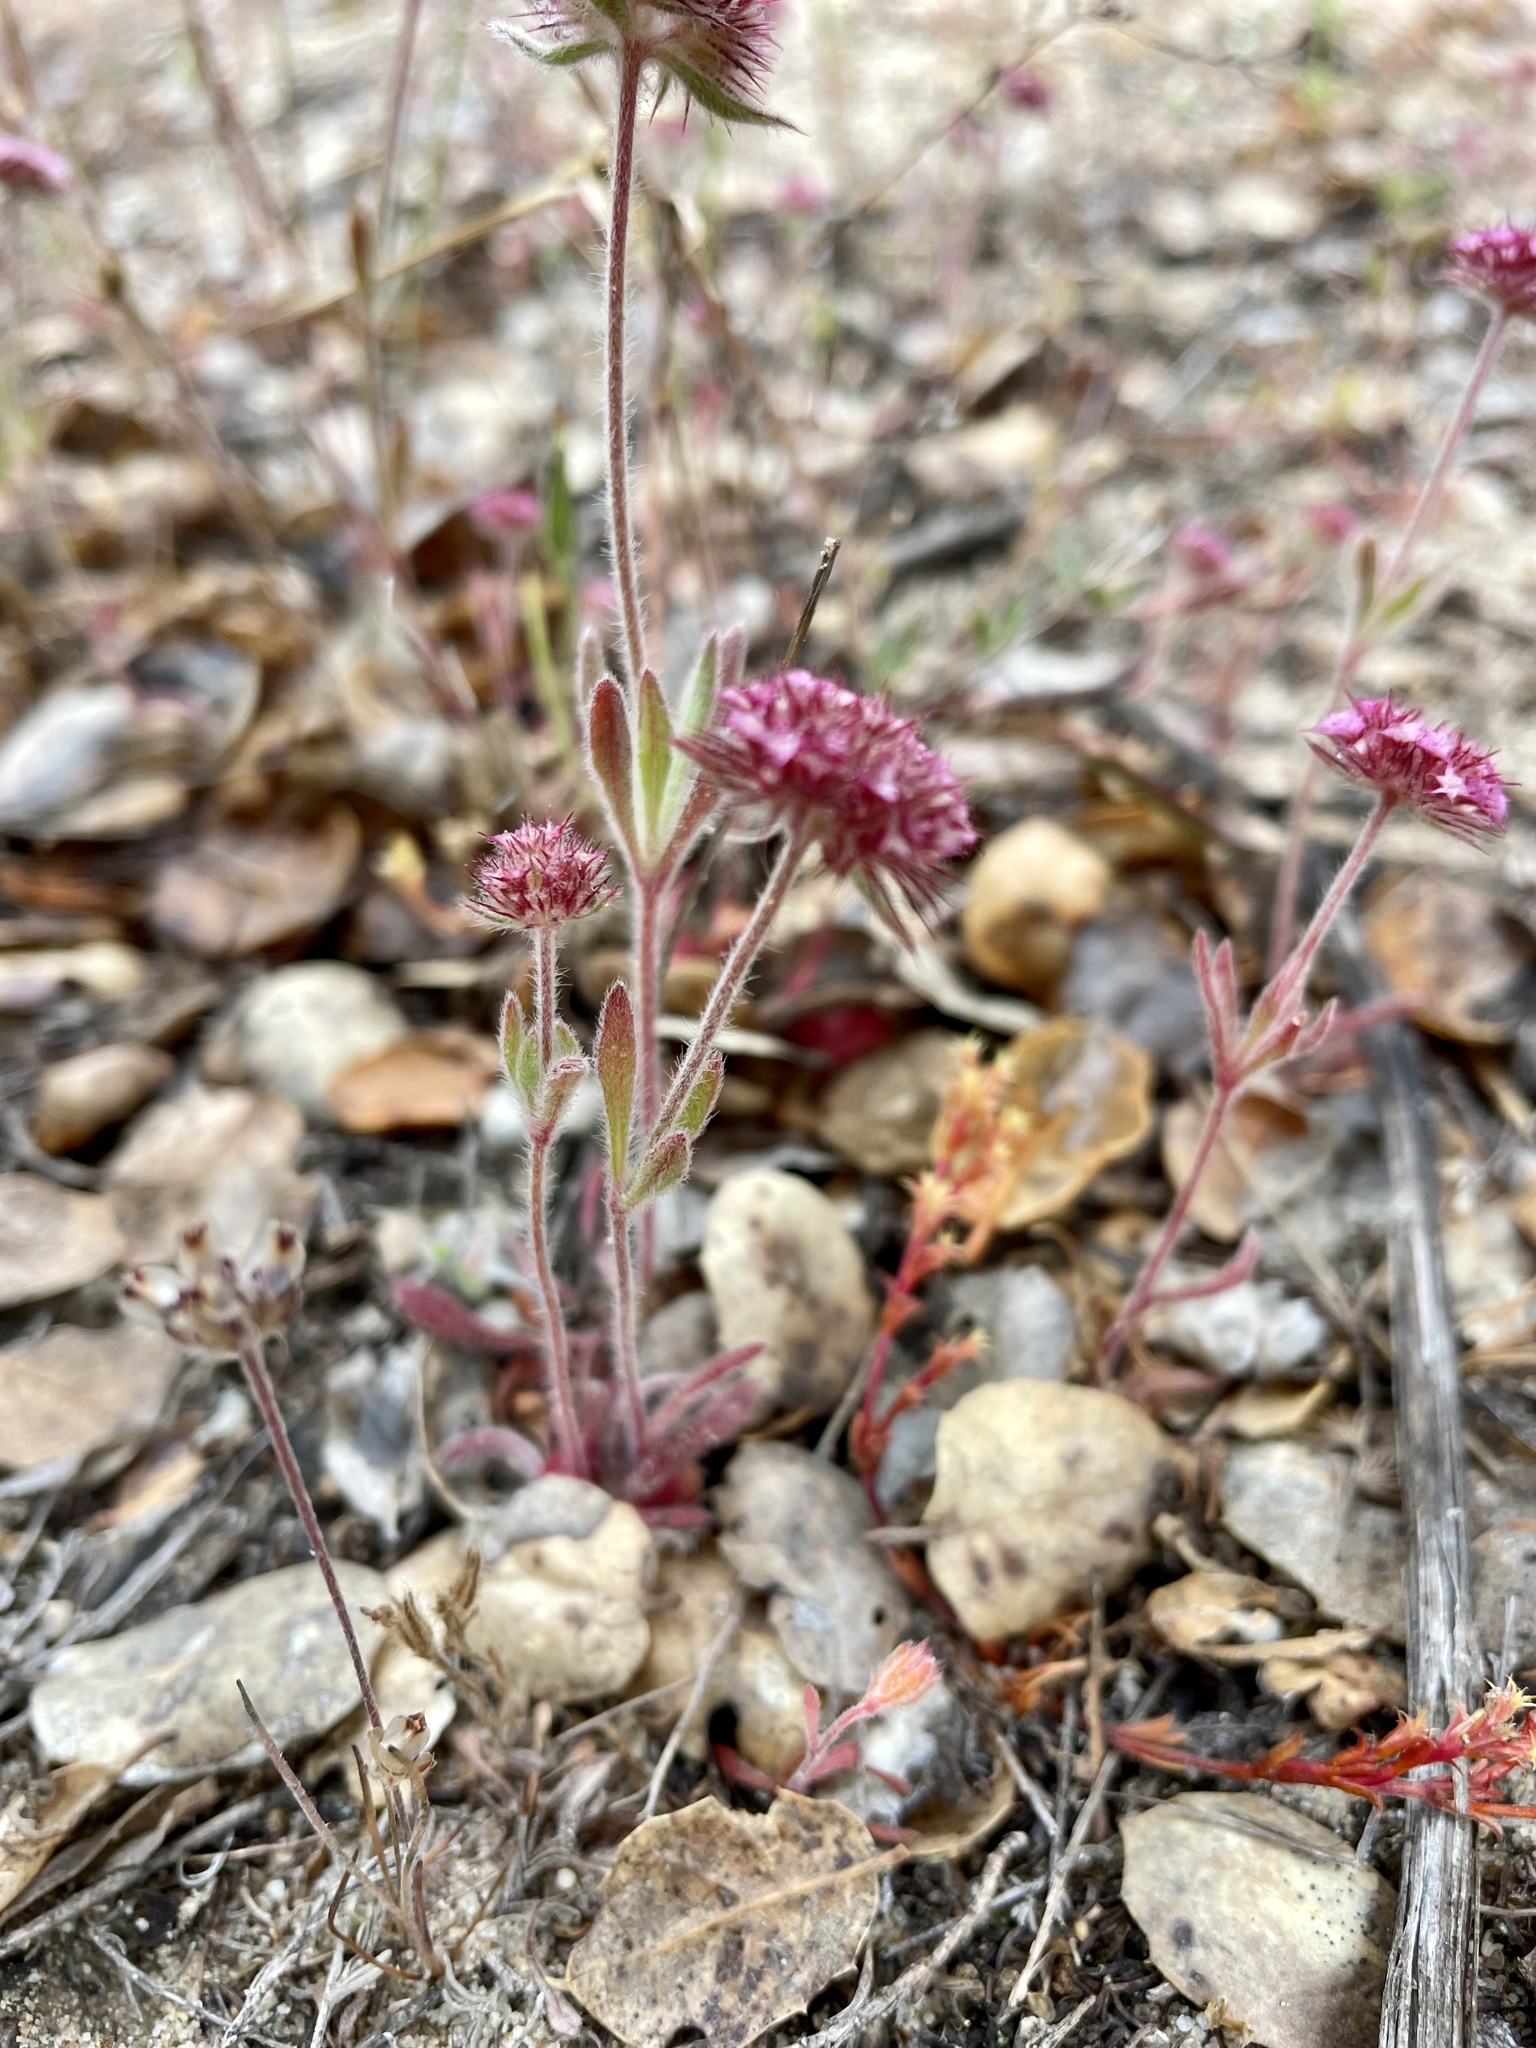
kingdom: Plantae
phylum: Tracheophyta
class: Magnoliopsida
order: Caryophyllales
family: Polygonaceae
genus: Chorizanthe
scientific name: Chorizanthe douglasii
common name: Douglas's spineflower
